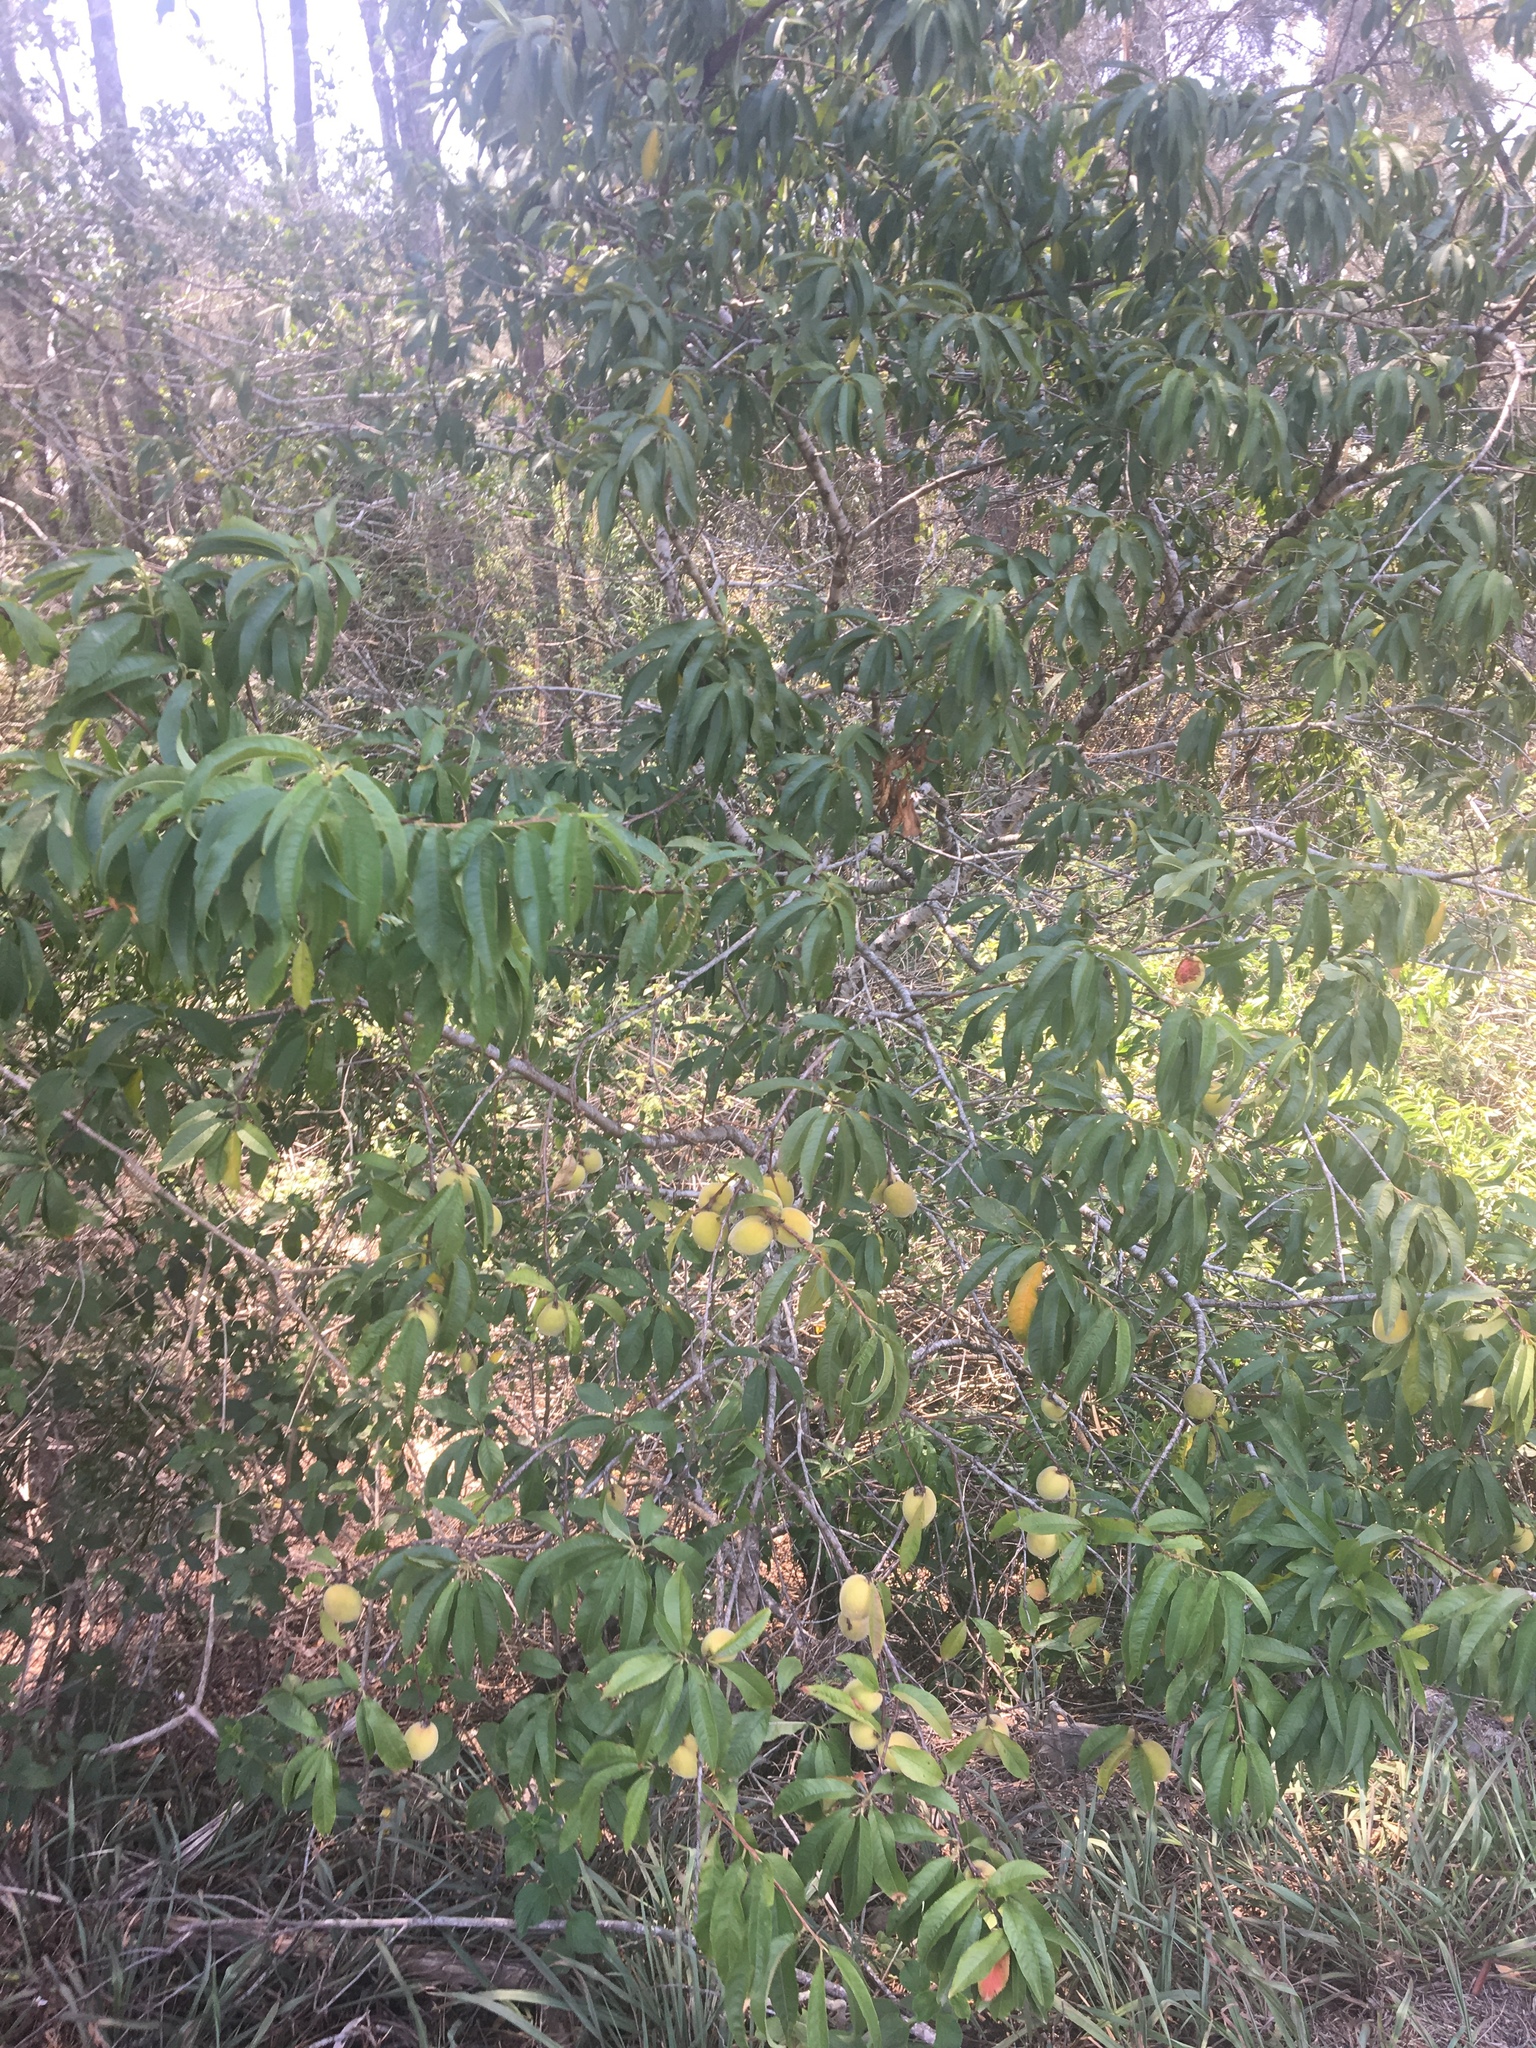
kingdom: Plantae
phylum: Tracheophyta
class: Magnoliopsida
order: Rosales
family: Rosaceae
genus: Prunus
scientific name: Prunus persica
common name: Peach
